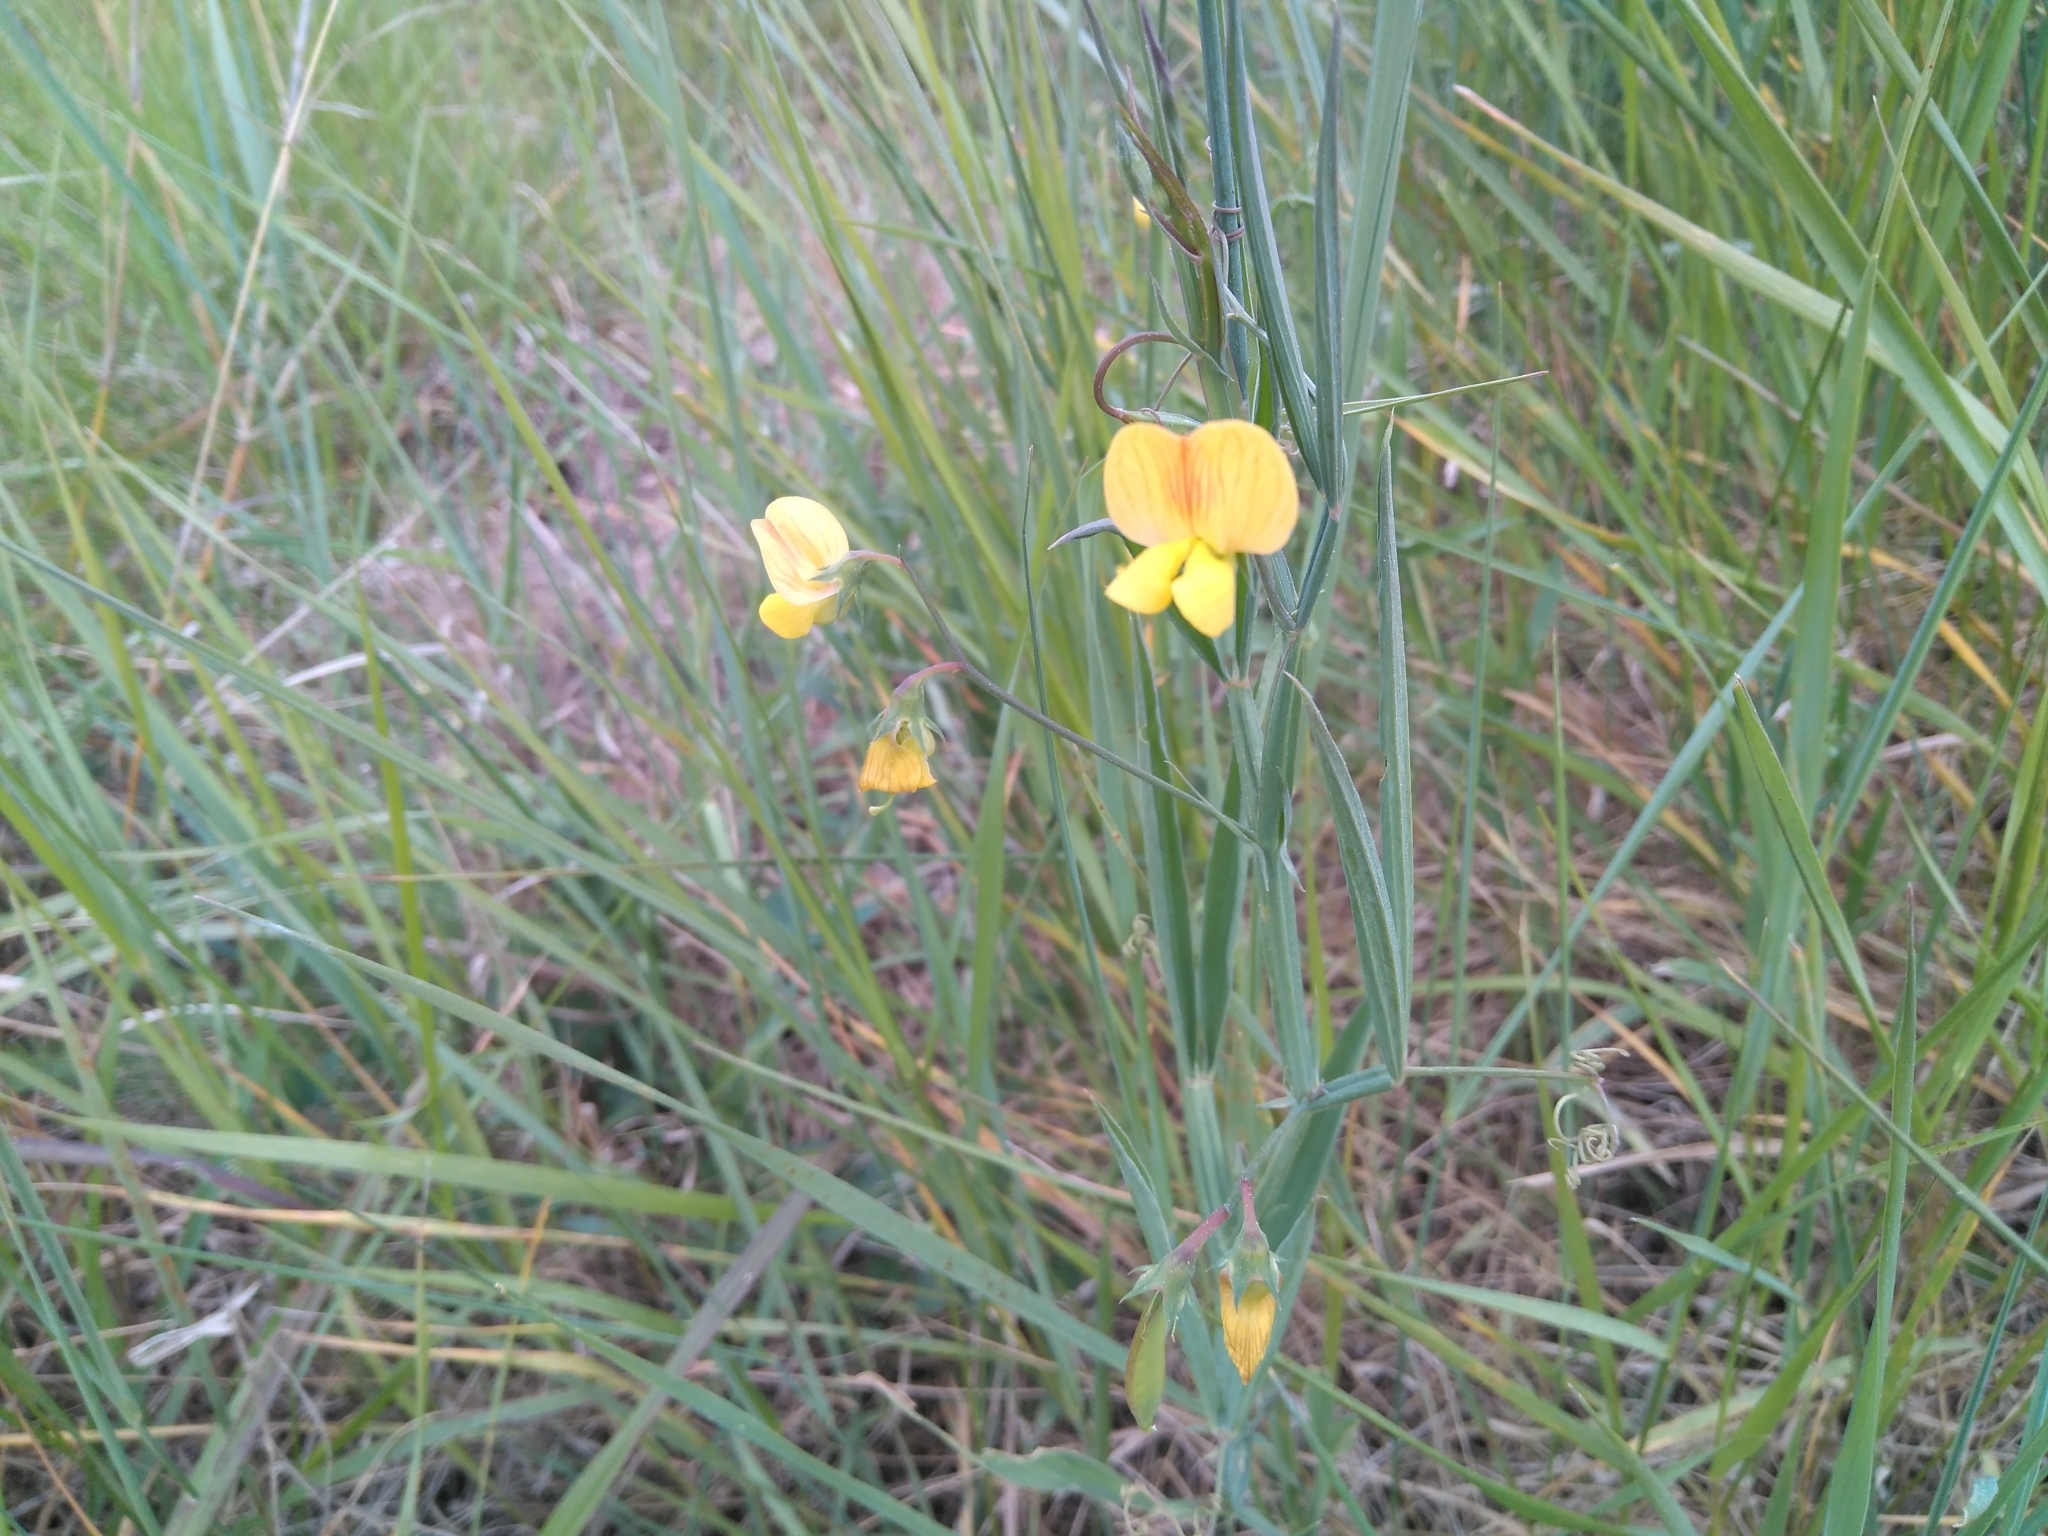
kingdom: Plantae
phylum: Tracheophyta
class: Magnoliopsida
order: Fabales
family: Fabaceae
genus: Lathyrus
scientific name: Lathyrus annuus
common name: Fodder pea
